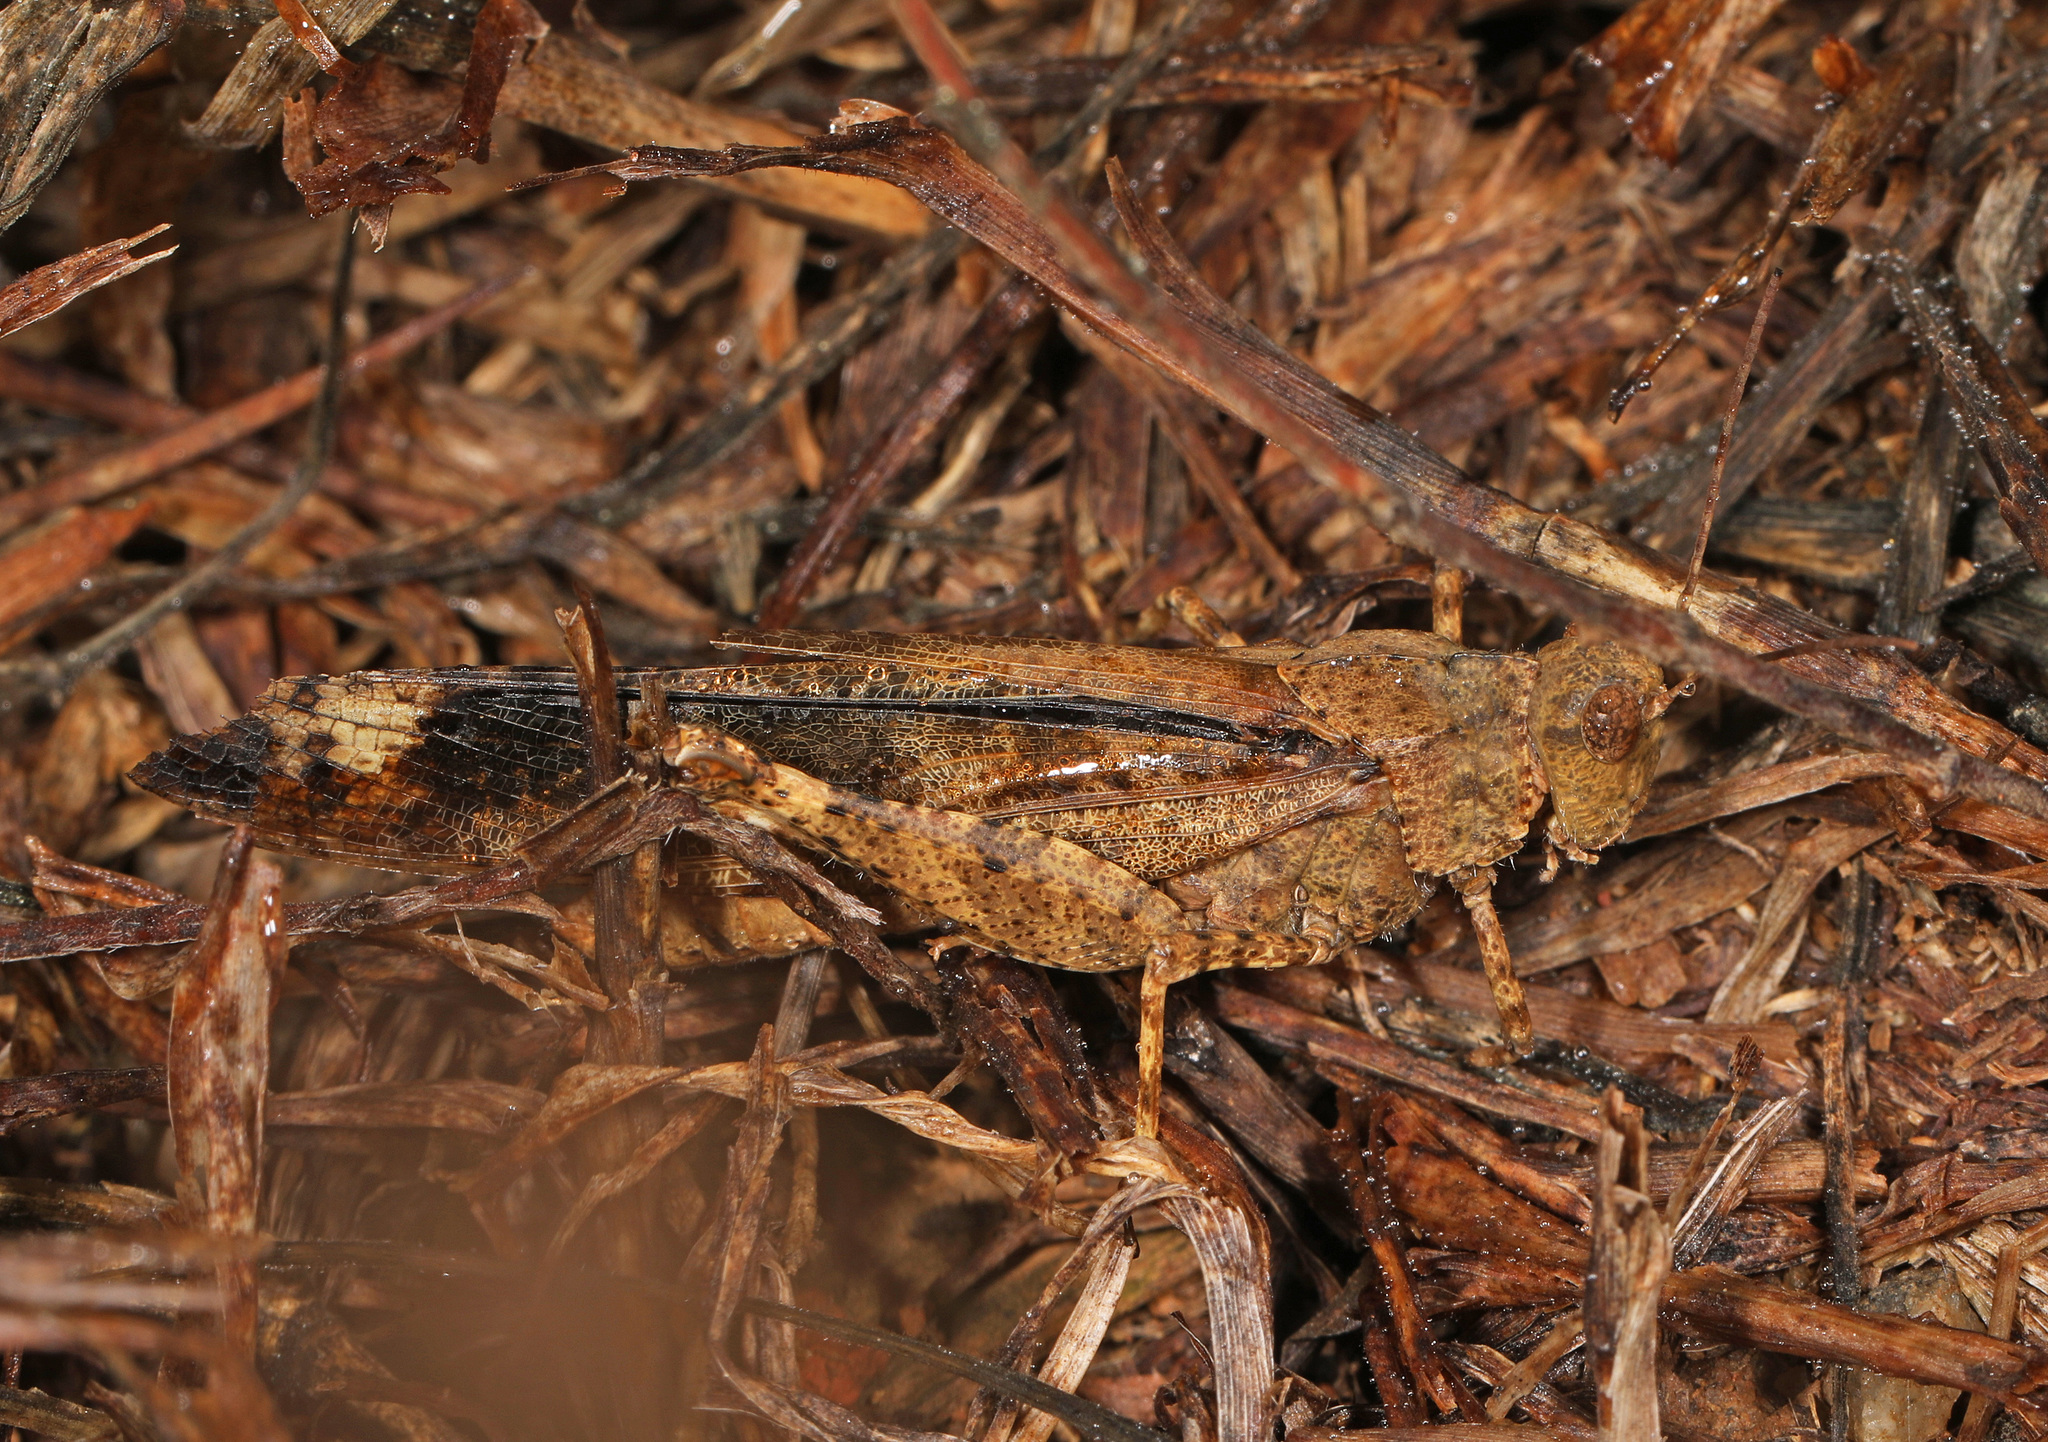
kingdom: Animalia
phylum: Arthropoda
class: Insecta
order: Orthoptera
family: Acrididae
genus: Dissosteira
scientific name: Dissosteira carolina
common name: Carolina grasshopper
